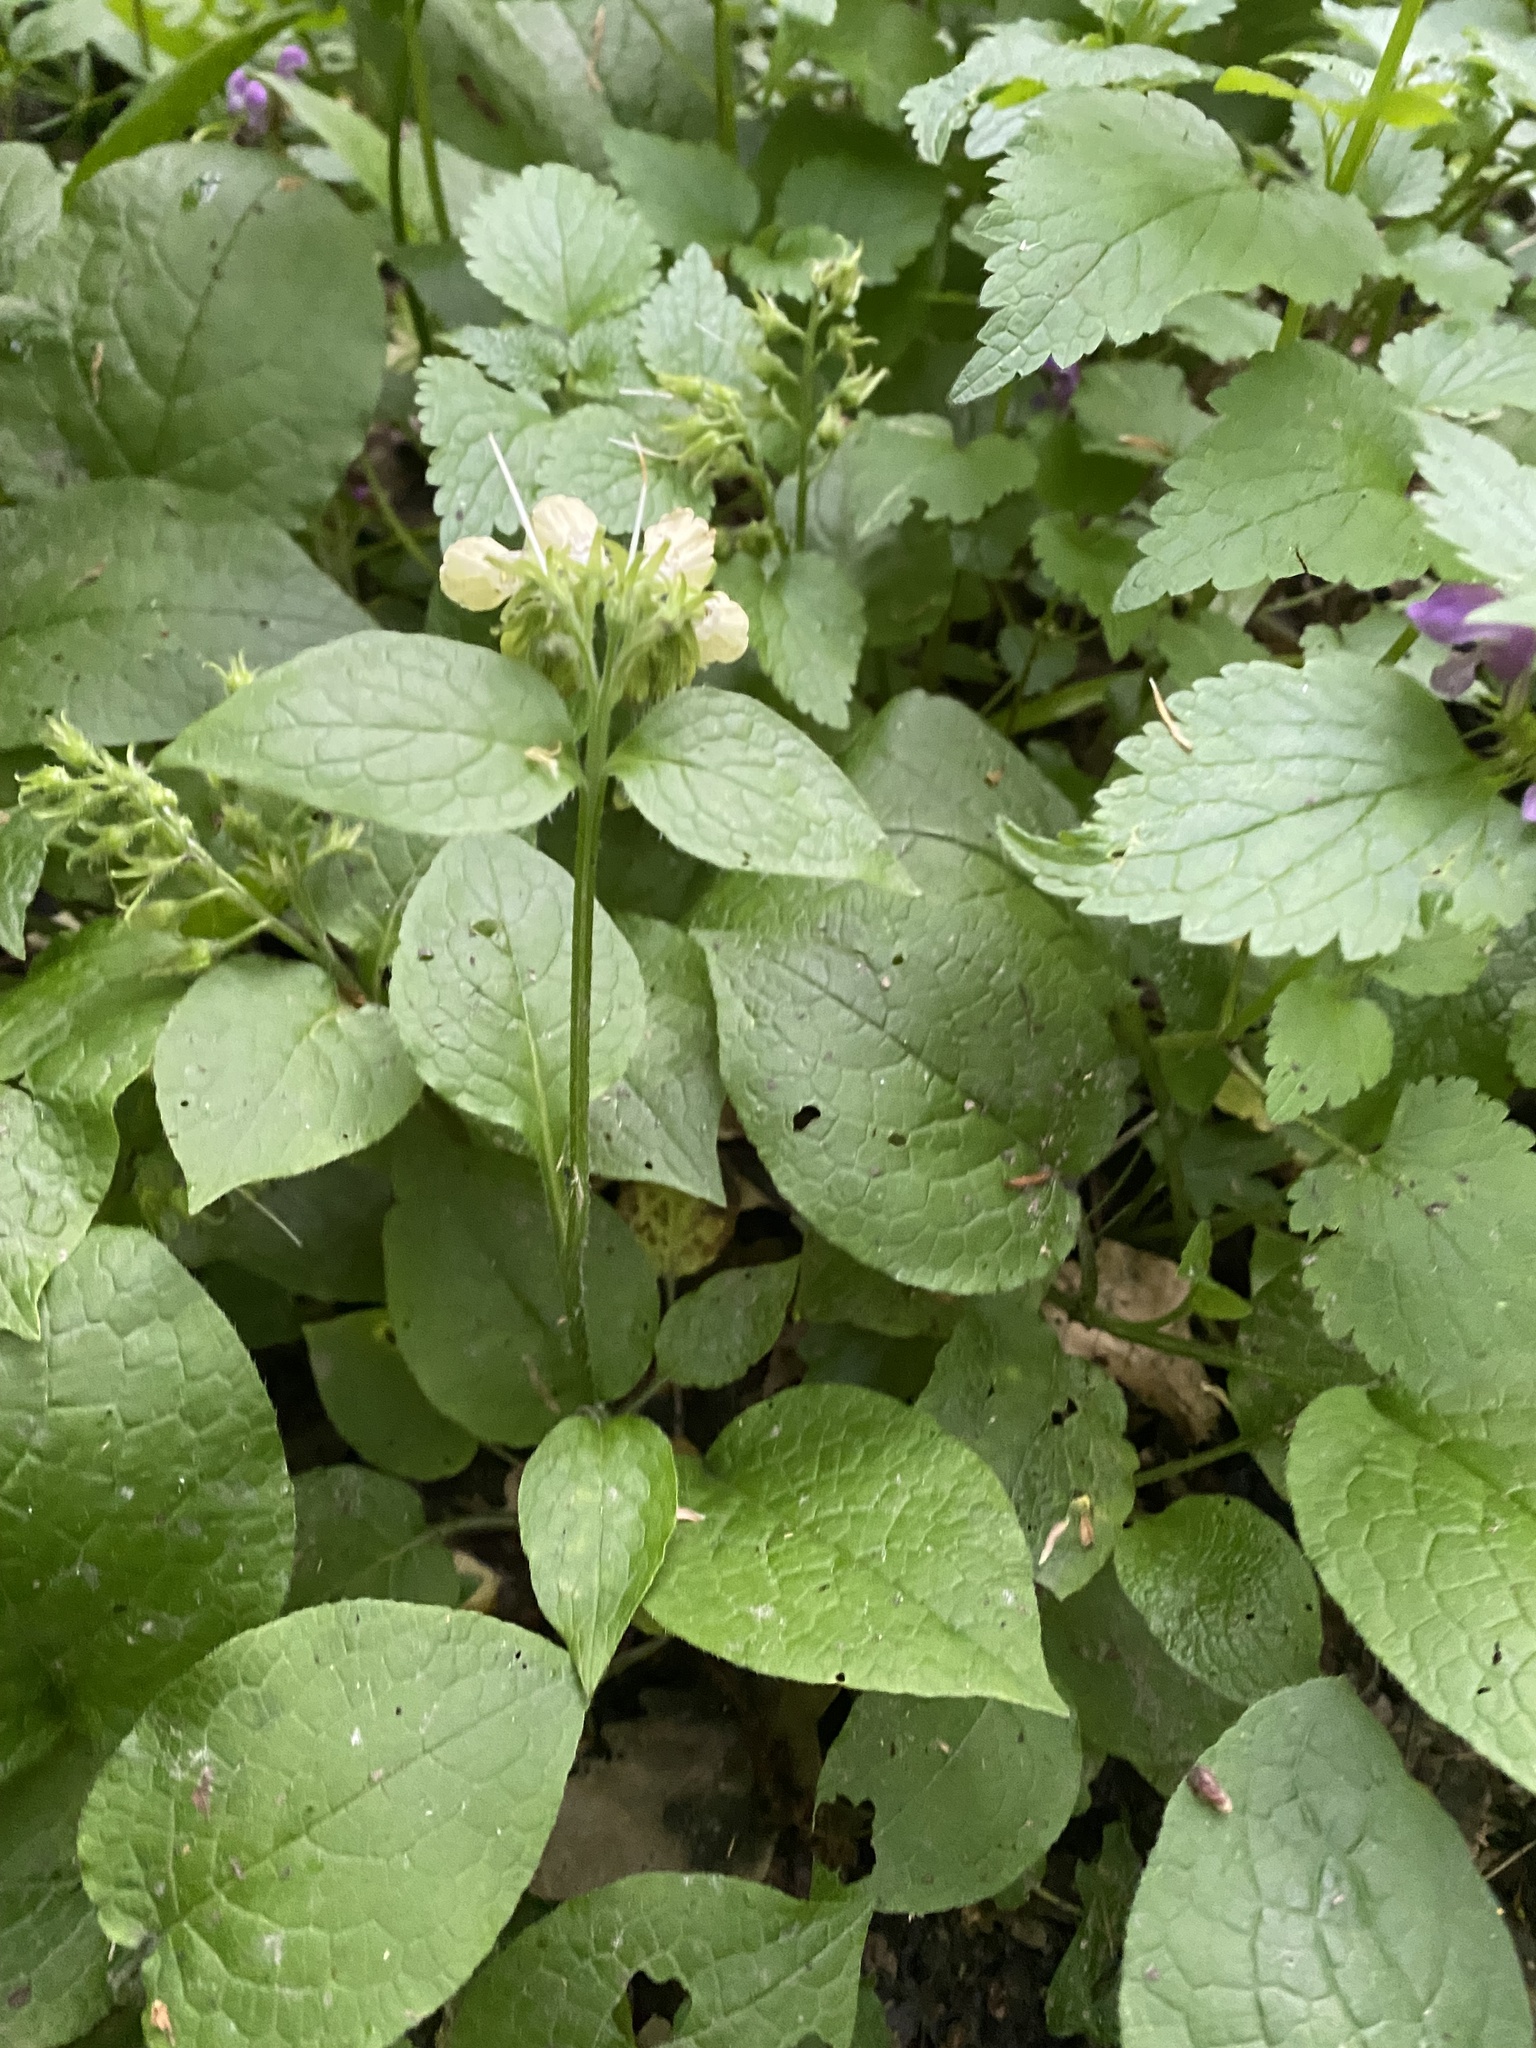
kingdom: Plantae
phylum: Tracheophyta
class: Magnoliopsida
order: Boraginales
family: Boraginaceae
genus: Symphytum
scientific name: Symphytum grandiflorum
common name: Creeping comfrey
